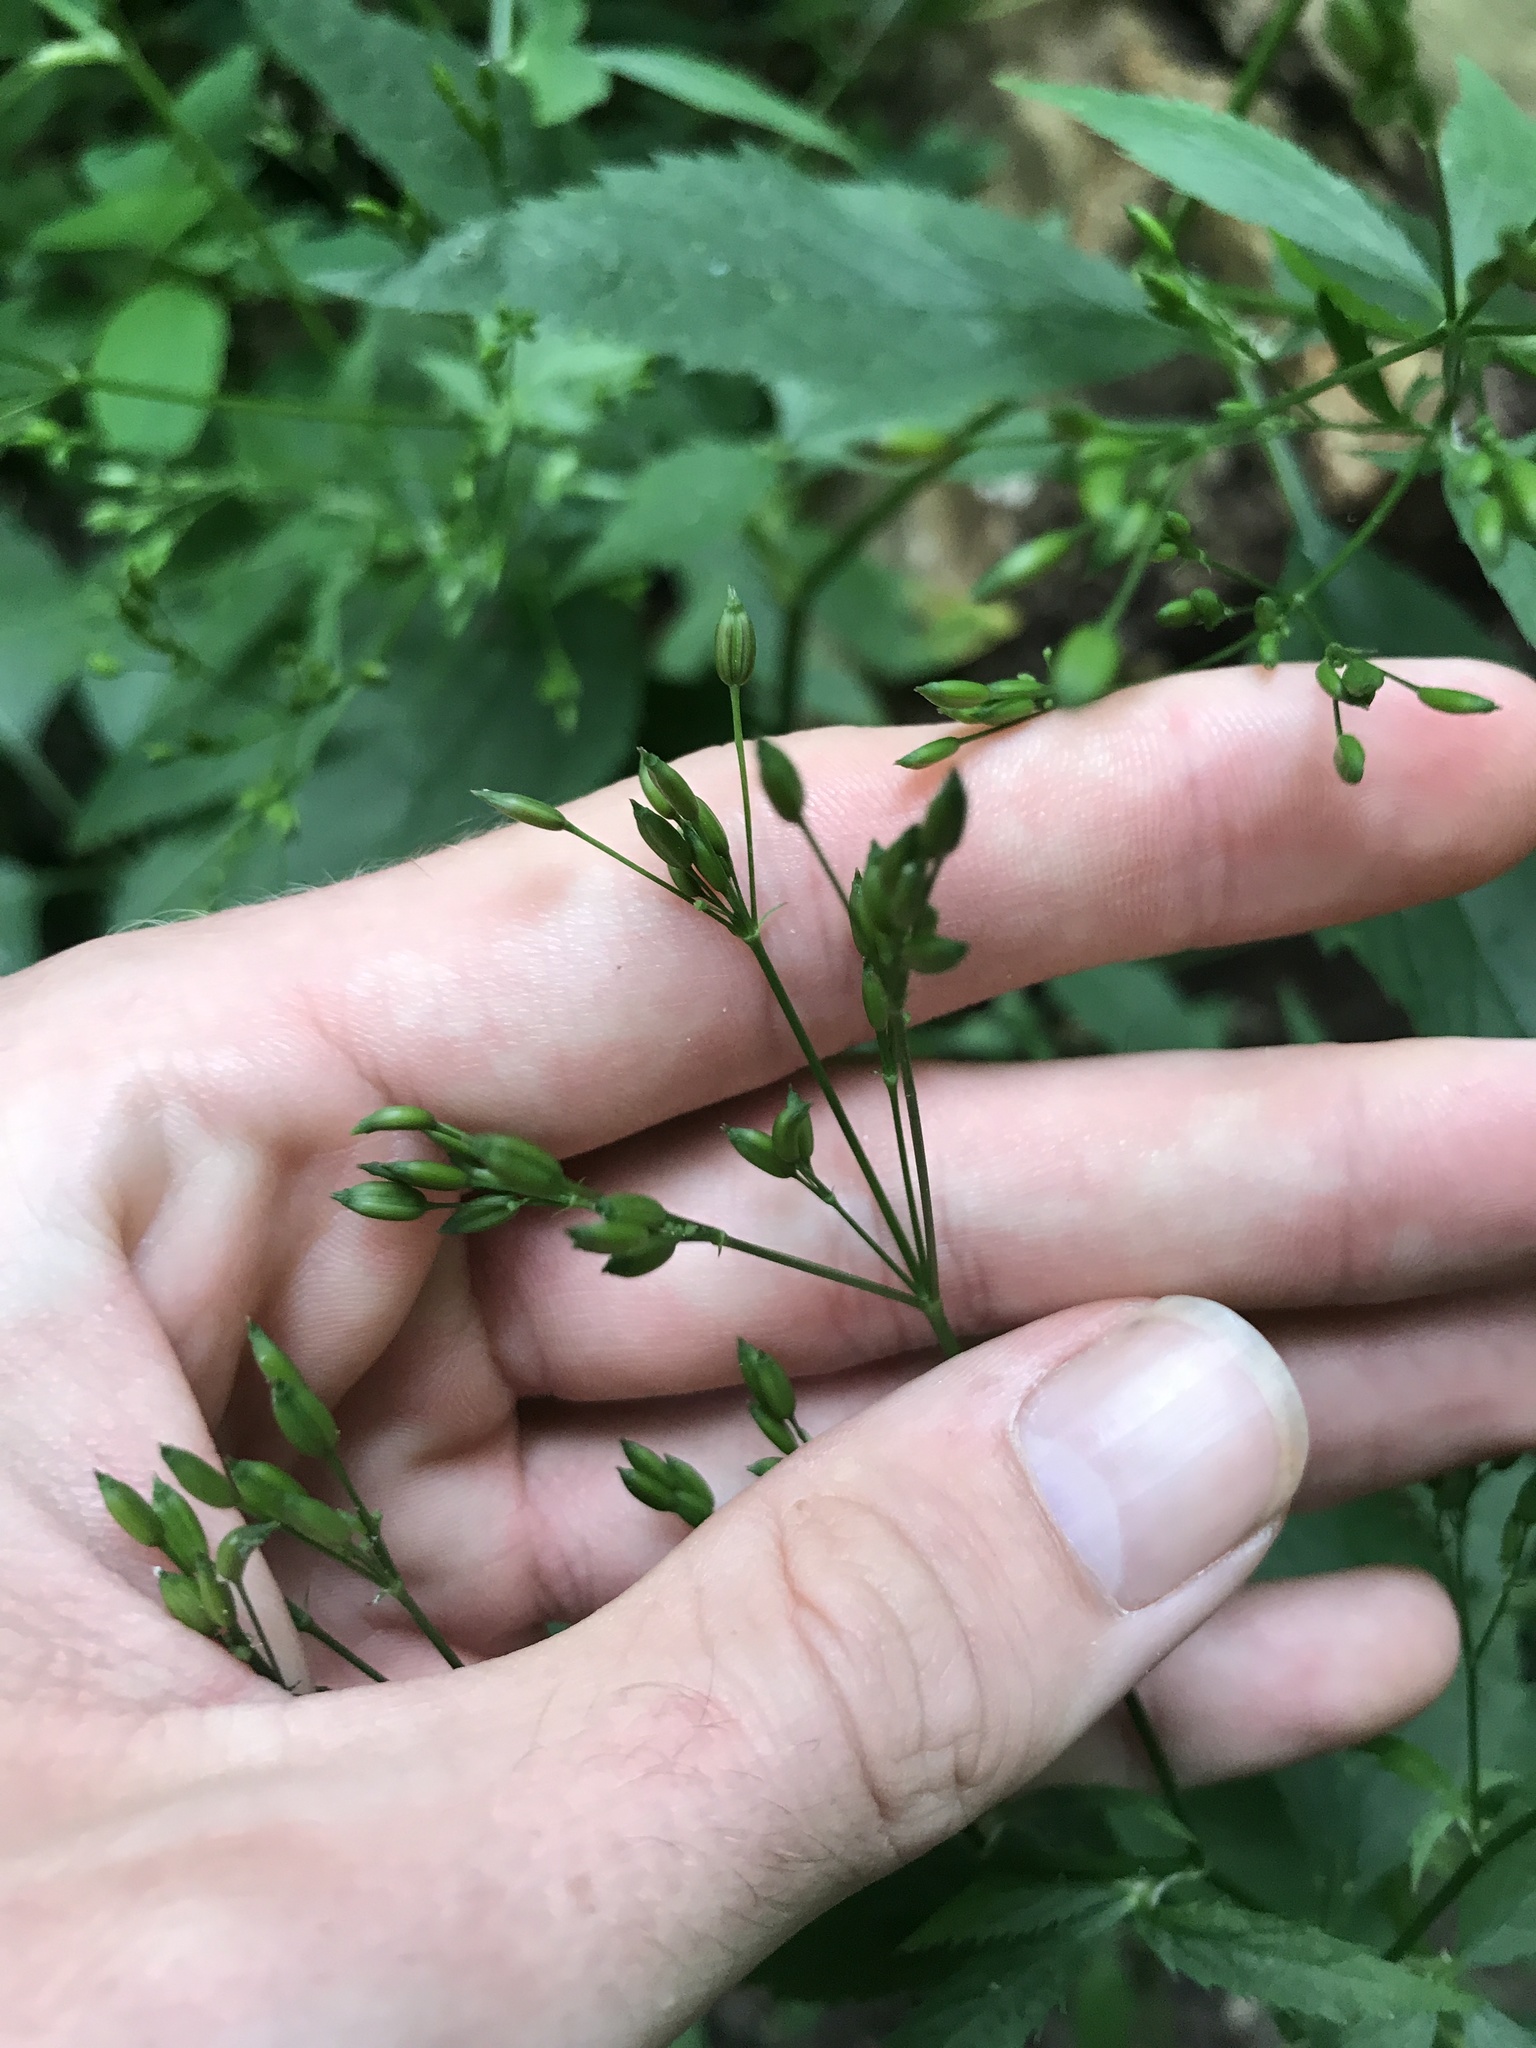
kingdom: Plantae
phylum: Tracheophyta
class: Magnoliopsida
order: Apiales
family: Apiaceae
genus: Cryptotaenia
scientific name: Cryptotaenia canadensis
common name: Honewort
